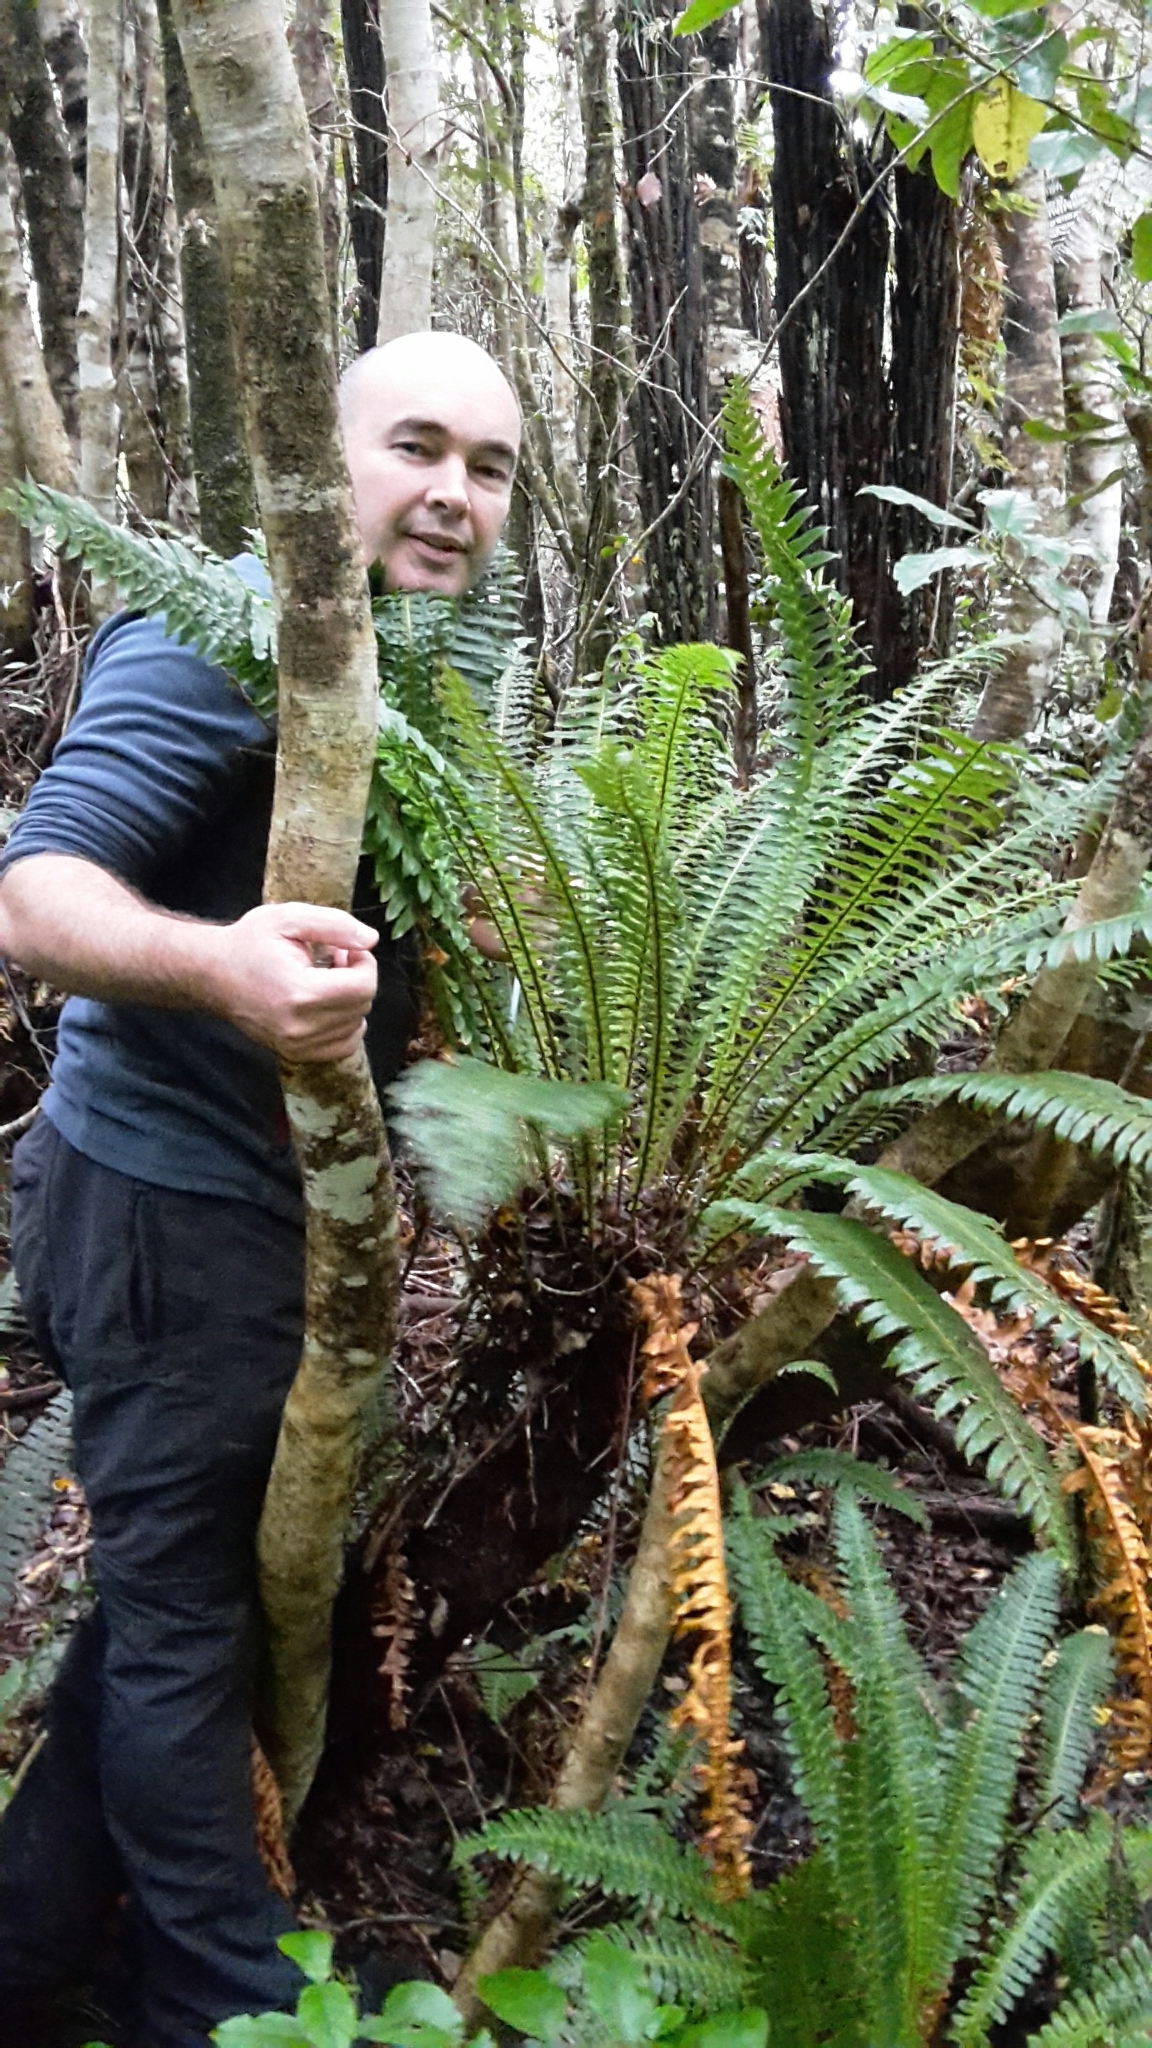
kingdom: Plantae
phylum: Tracheophyta
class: Polypodiopsida
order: Polypodiales
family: Blechnaceae
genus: Lomaria
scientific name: Lomaria discolor
